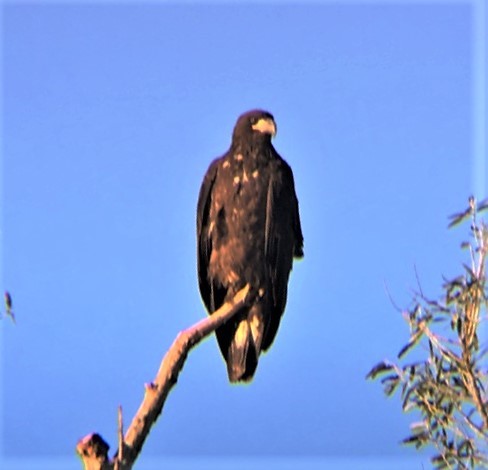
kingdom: Animalia
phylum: Chordata
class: Aves
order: Accipitriformes
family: Accipitridae
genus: Haliaeetus
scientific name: Haliaeetus leucocephalus
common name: Bald eagle
